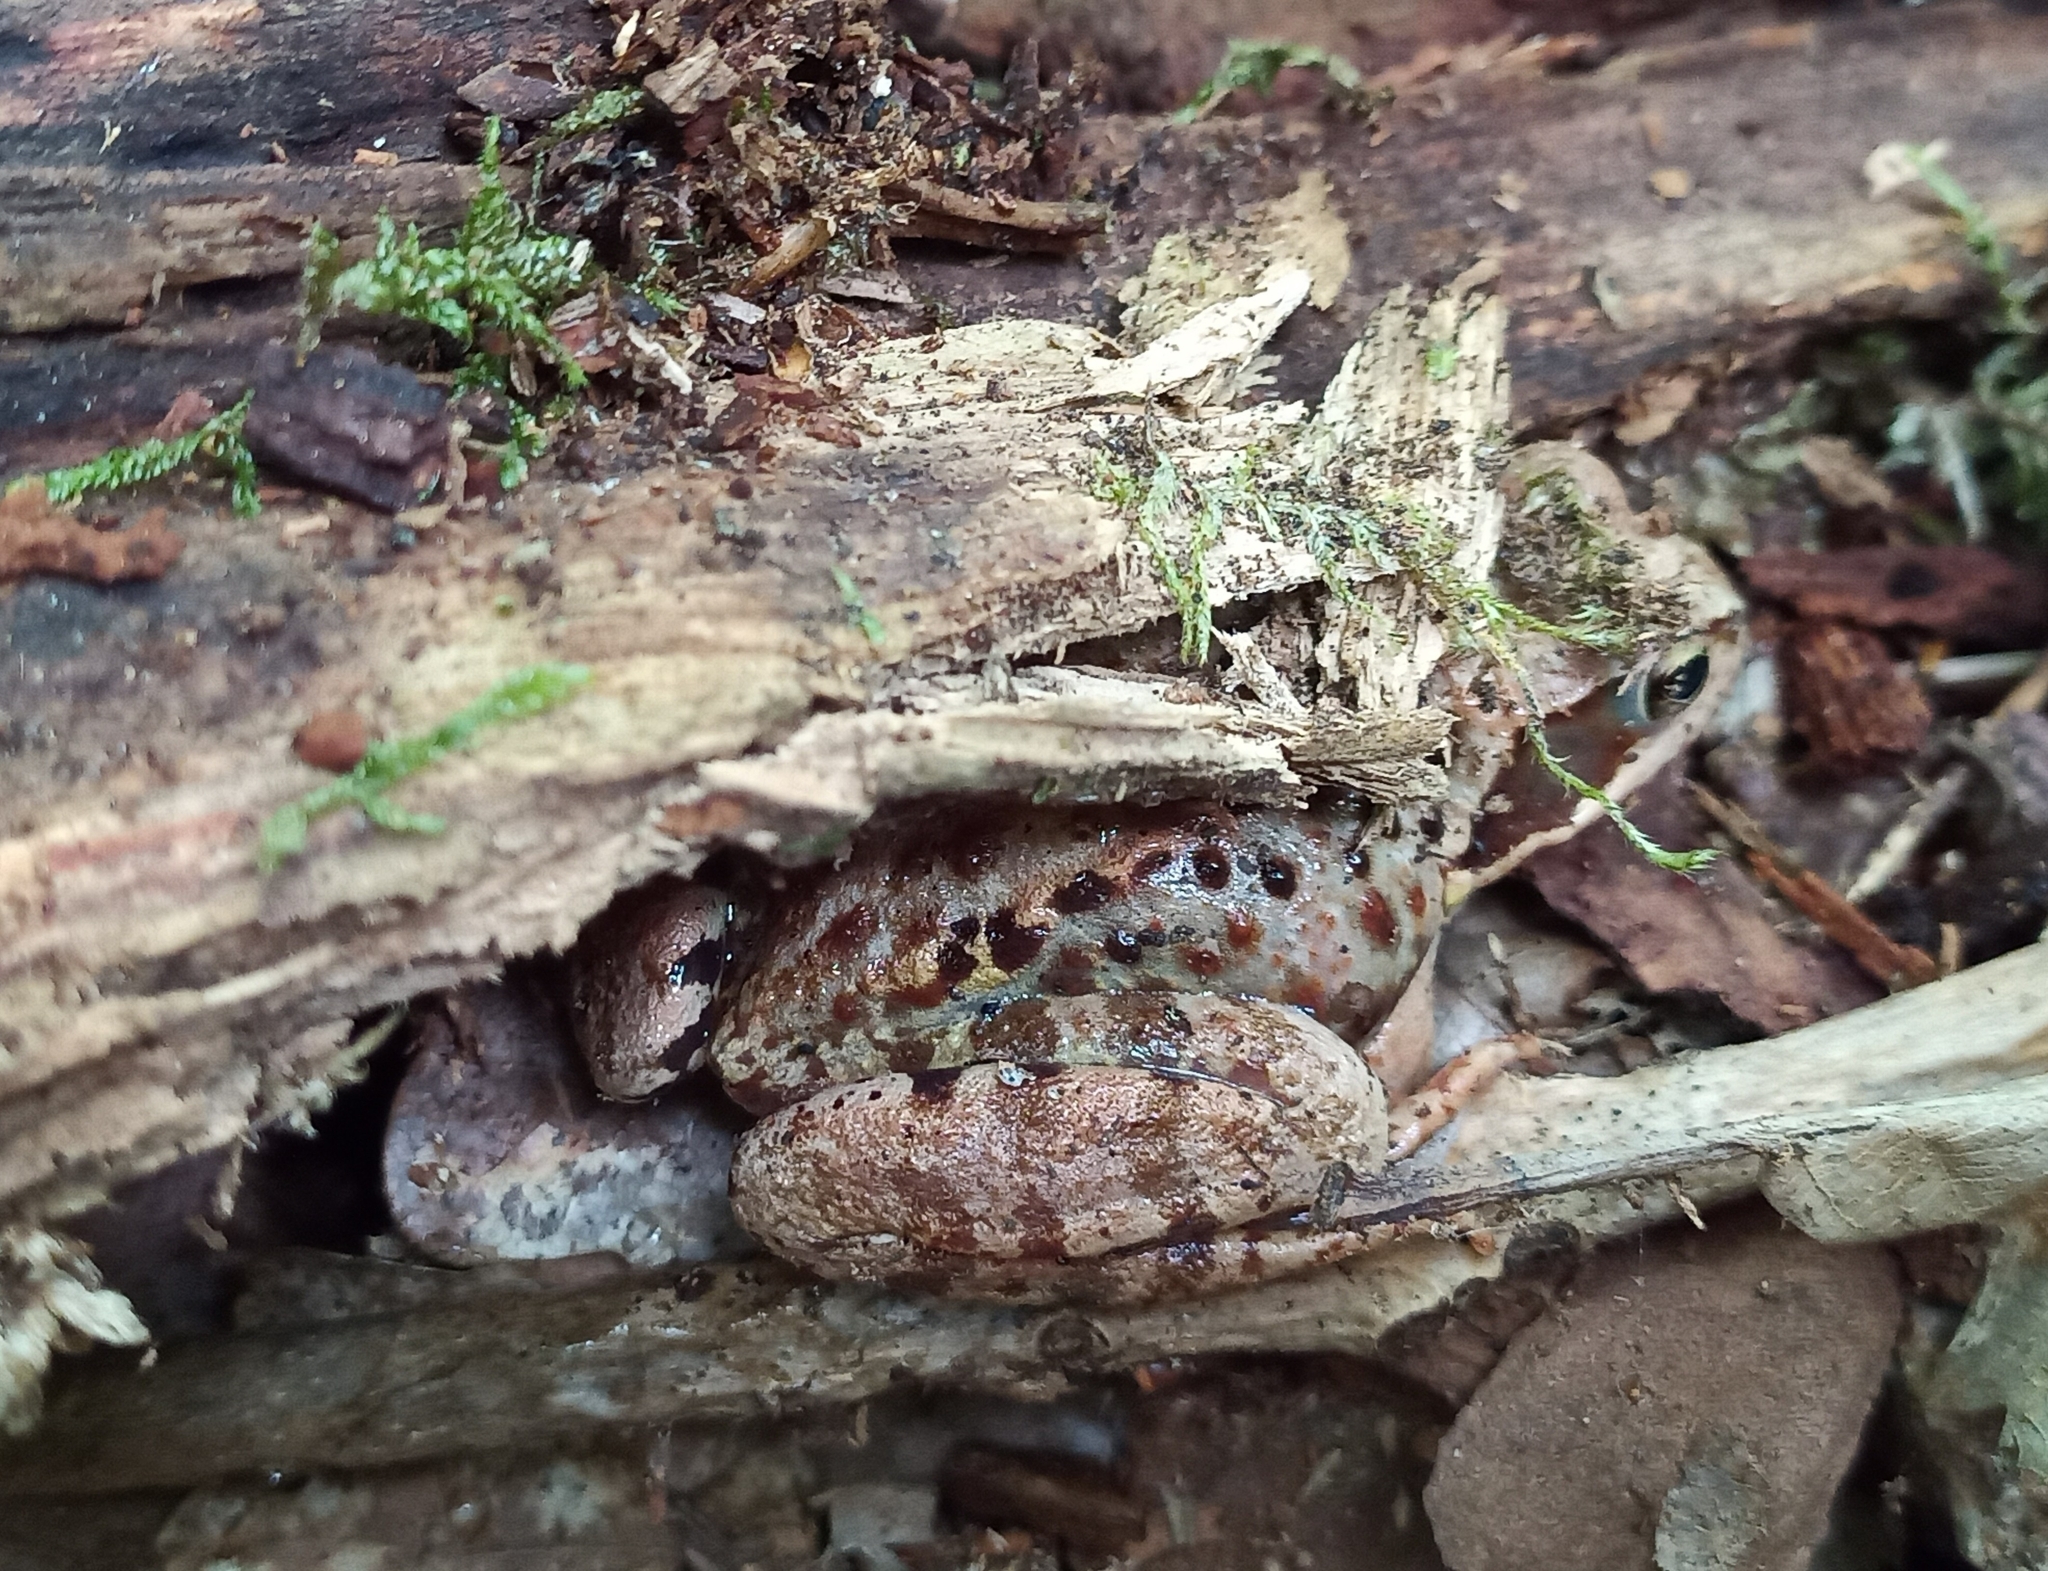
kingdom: Animalia
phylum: Chordata
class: Amphibia
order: Anura
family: Ranidae
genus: Rana
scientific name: Rana temporaria
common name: Common frog
